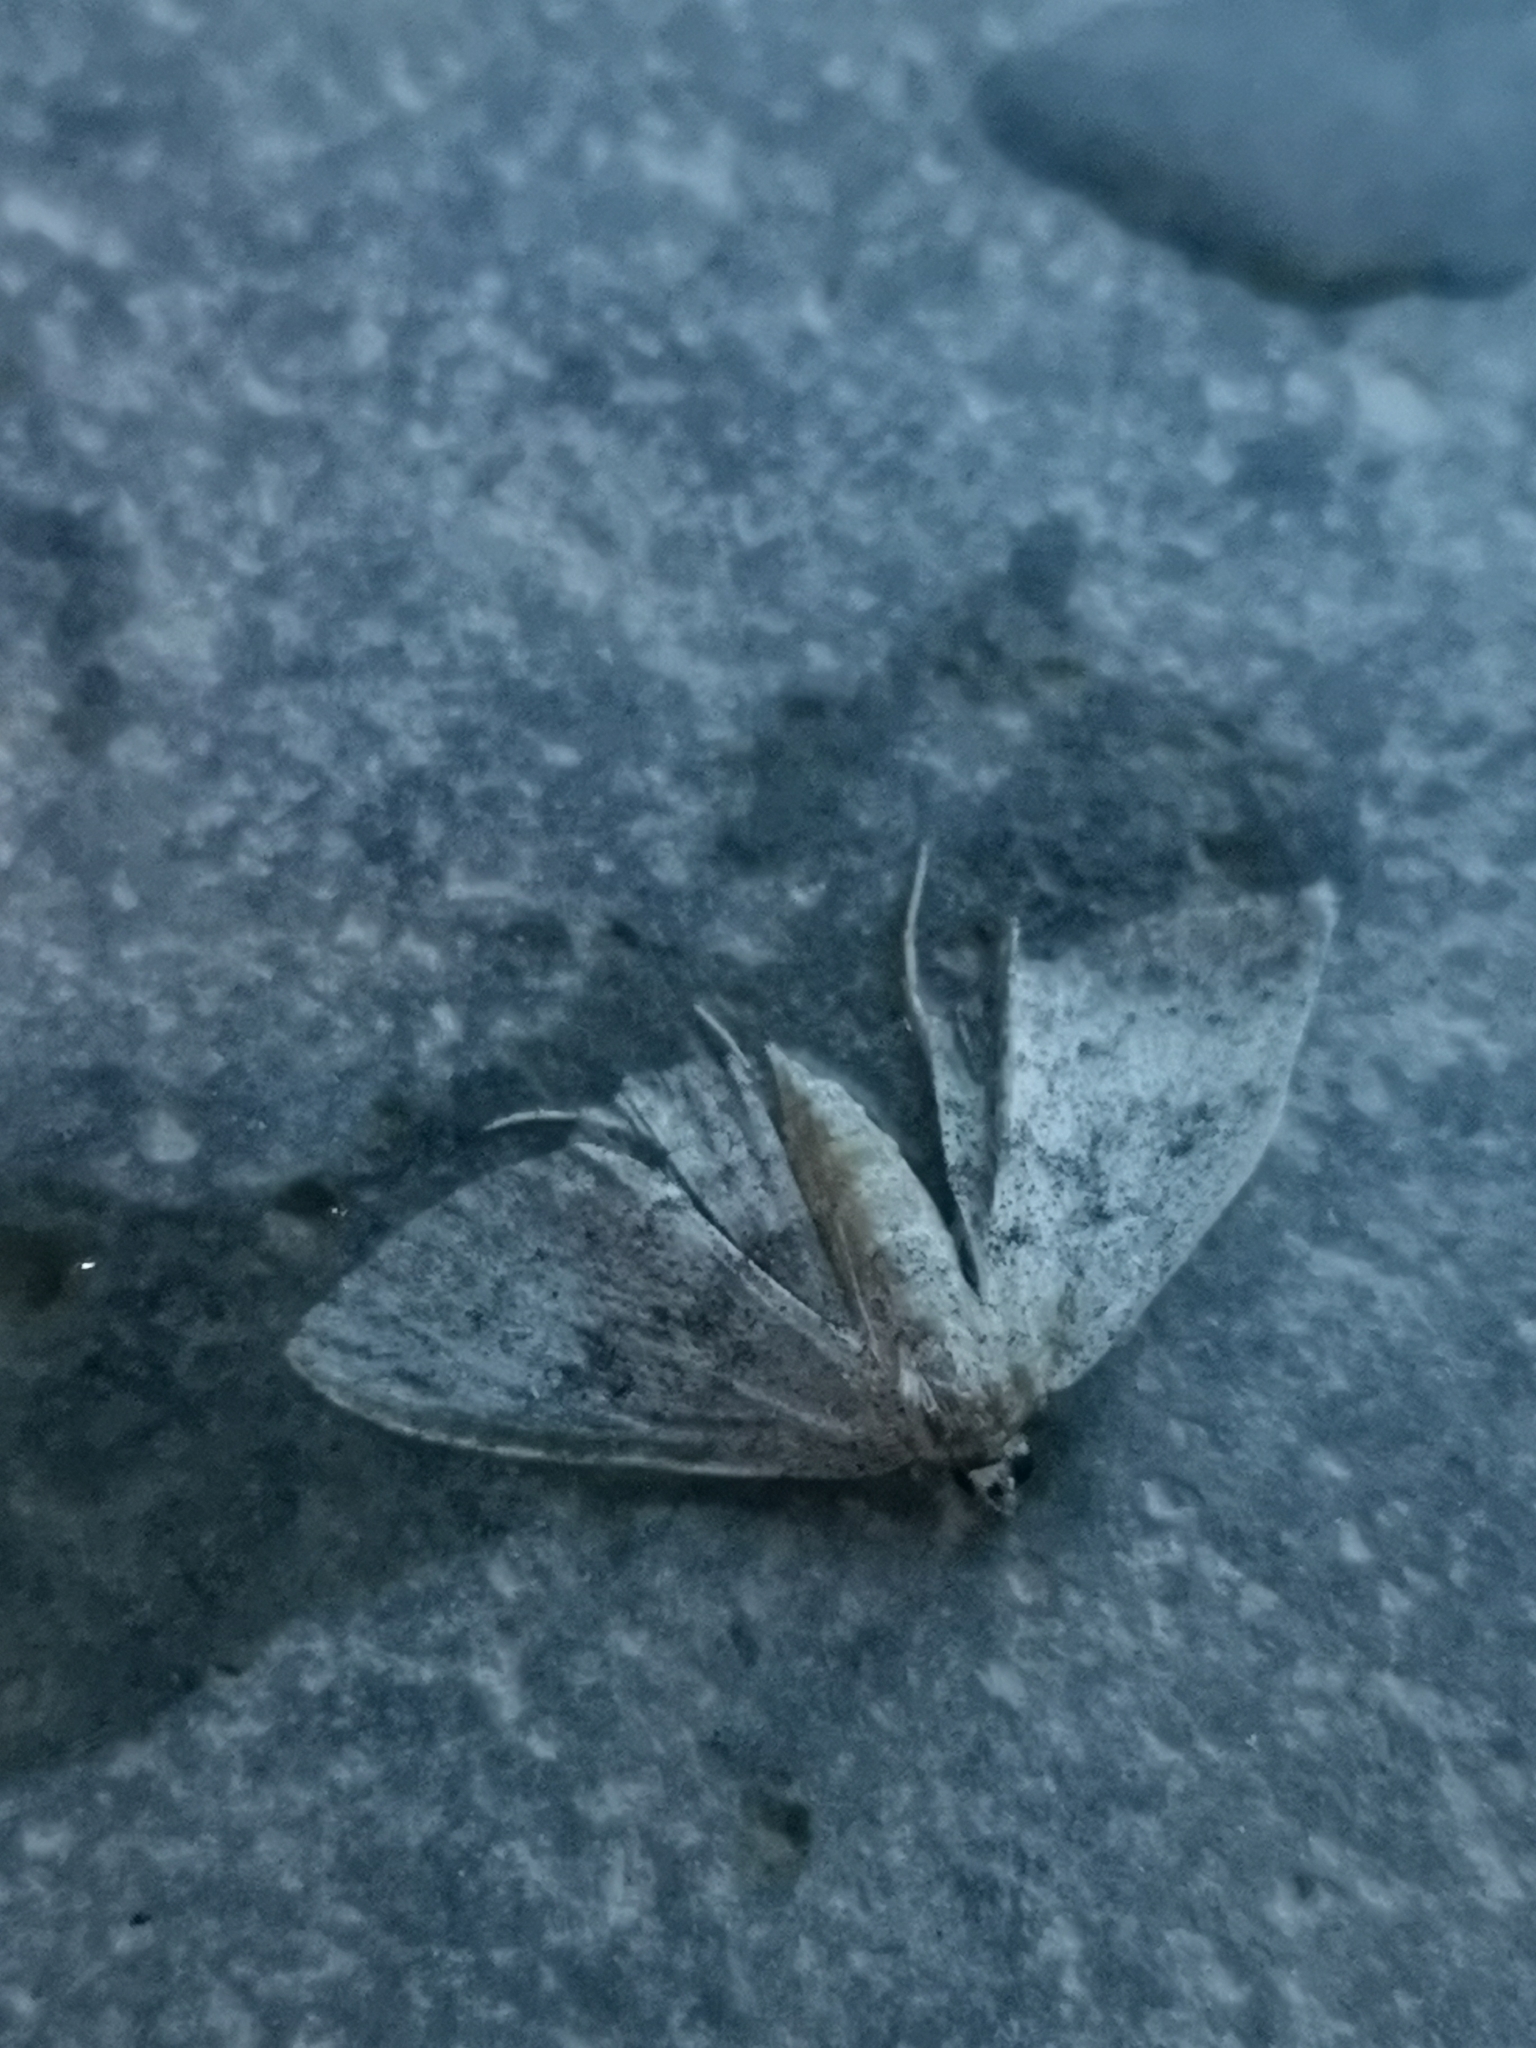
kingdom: Animalia
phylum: Arthropoda
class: Insecta
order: Lepidoptera
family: Geometridae
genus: Scopula
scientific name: Scopula guancharia
